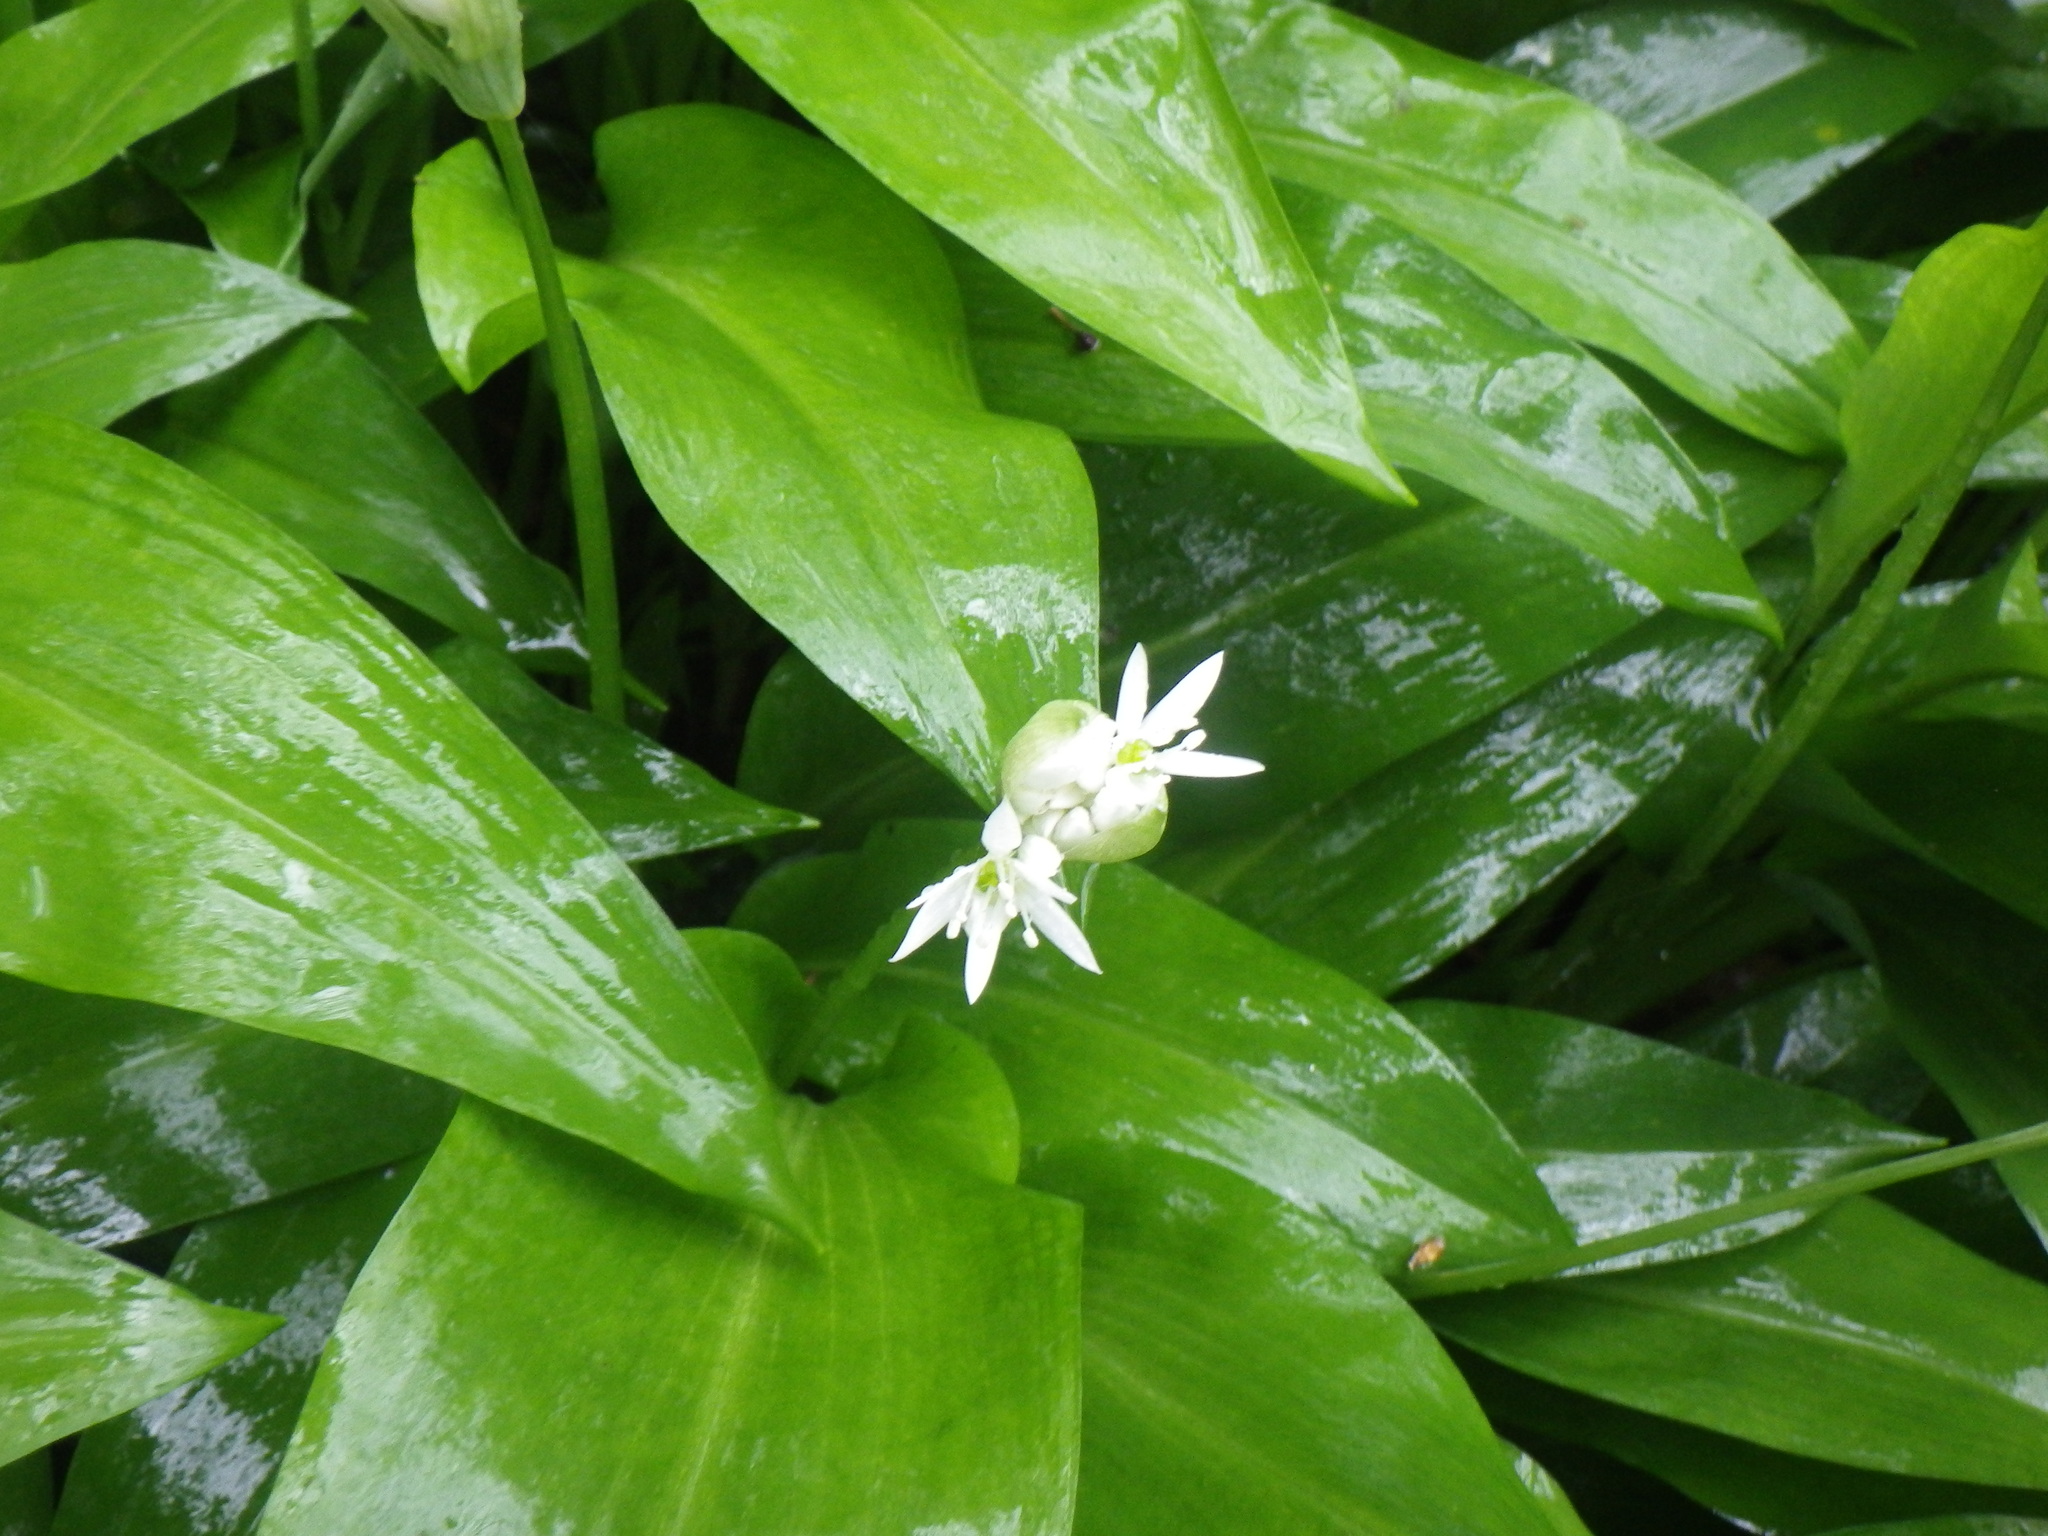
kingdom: Plantae
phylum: Tracheophyta
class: Liliopsida
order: Asparagales
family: Amaryllidaceae
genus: Allium
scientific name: Allium ursinum
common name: Ramsons
